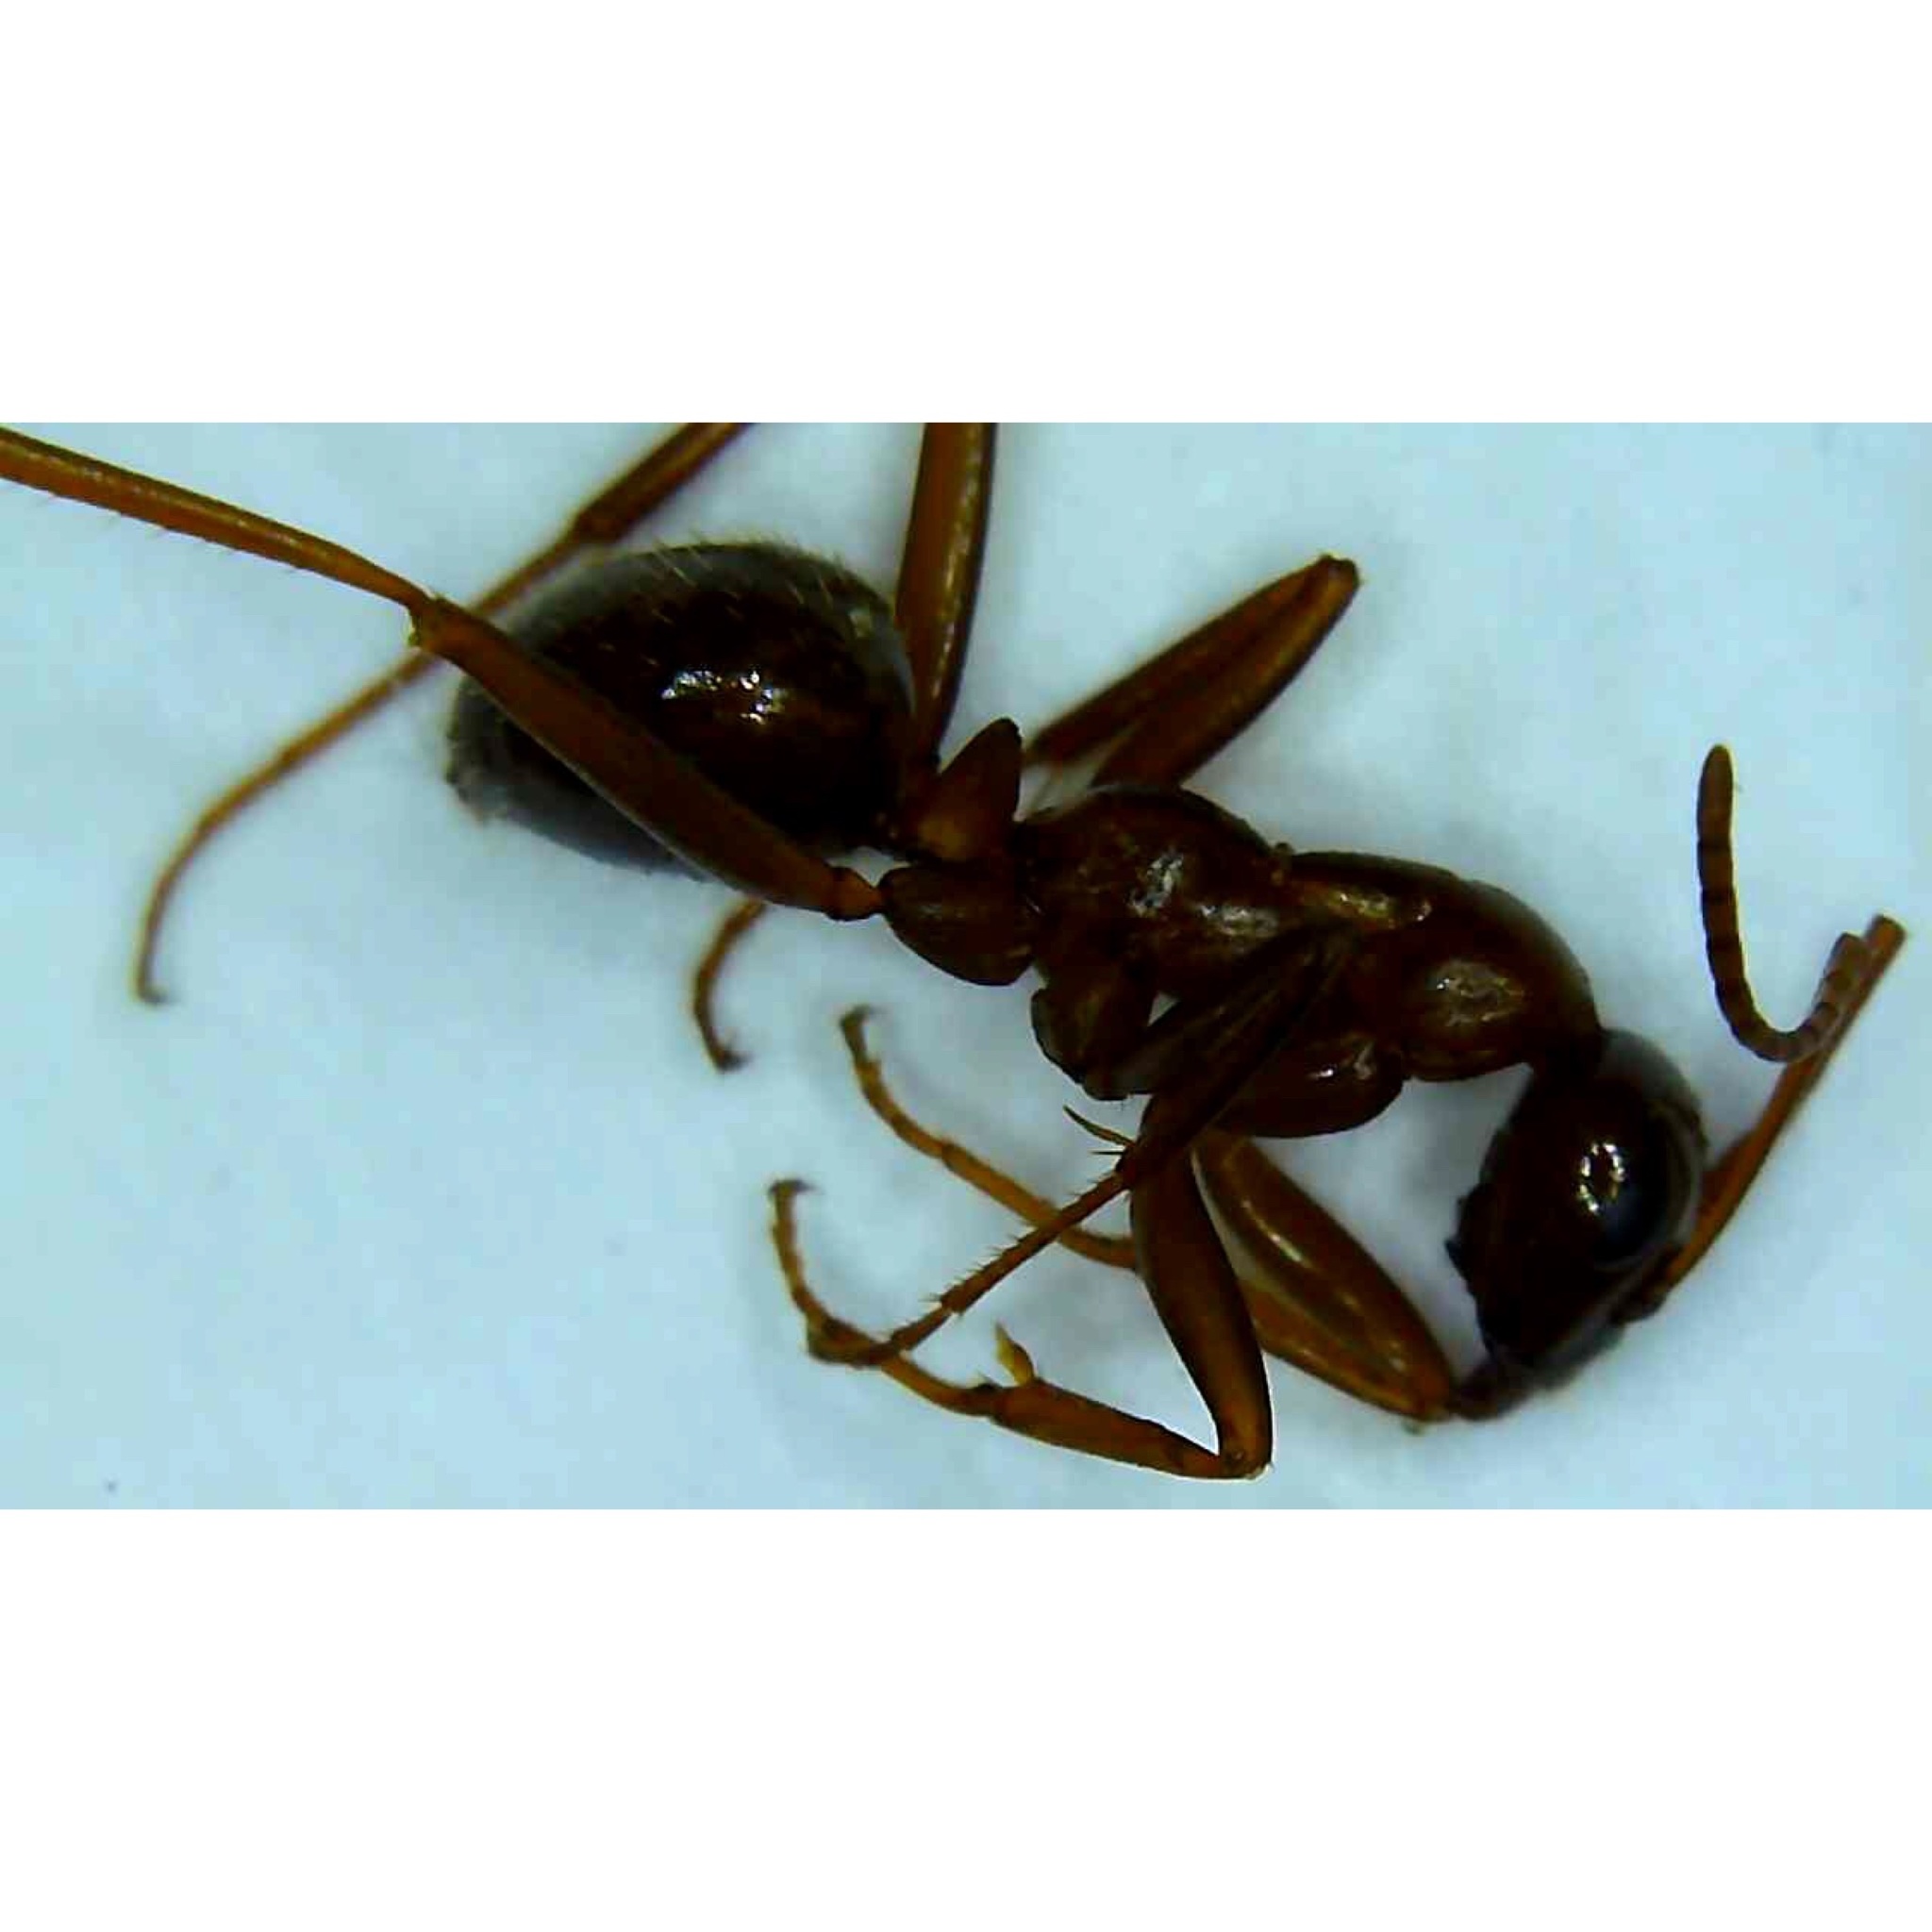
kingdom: Animalia
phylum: Arthropoda
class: Insecta
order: Hymenoptera
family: Formicidae
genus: Formica
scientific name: Formica pallidefulva
